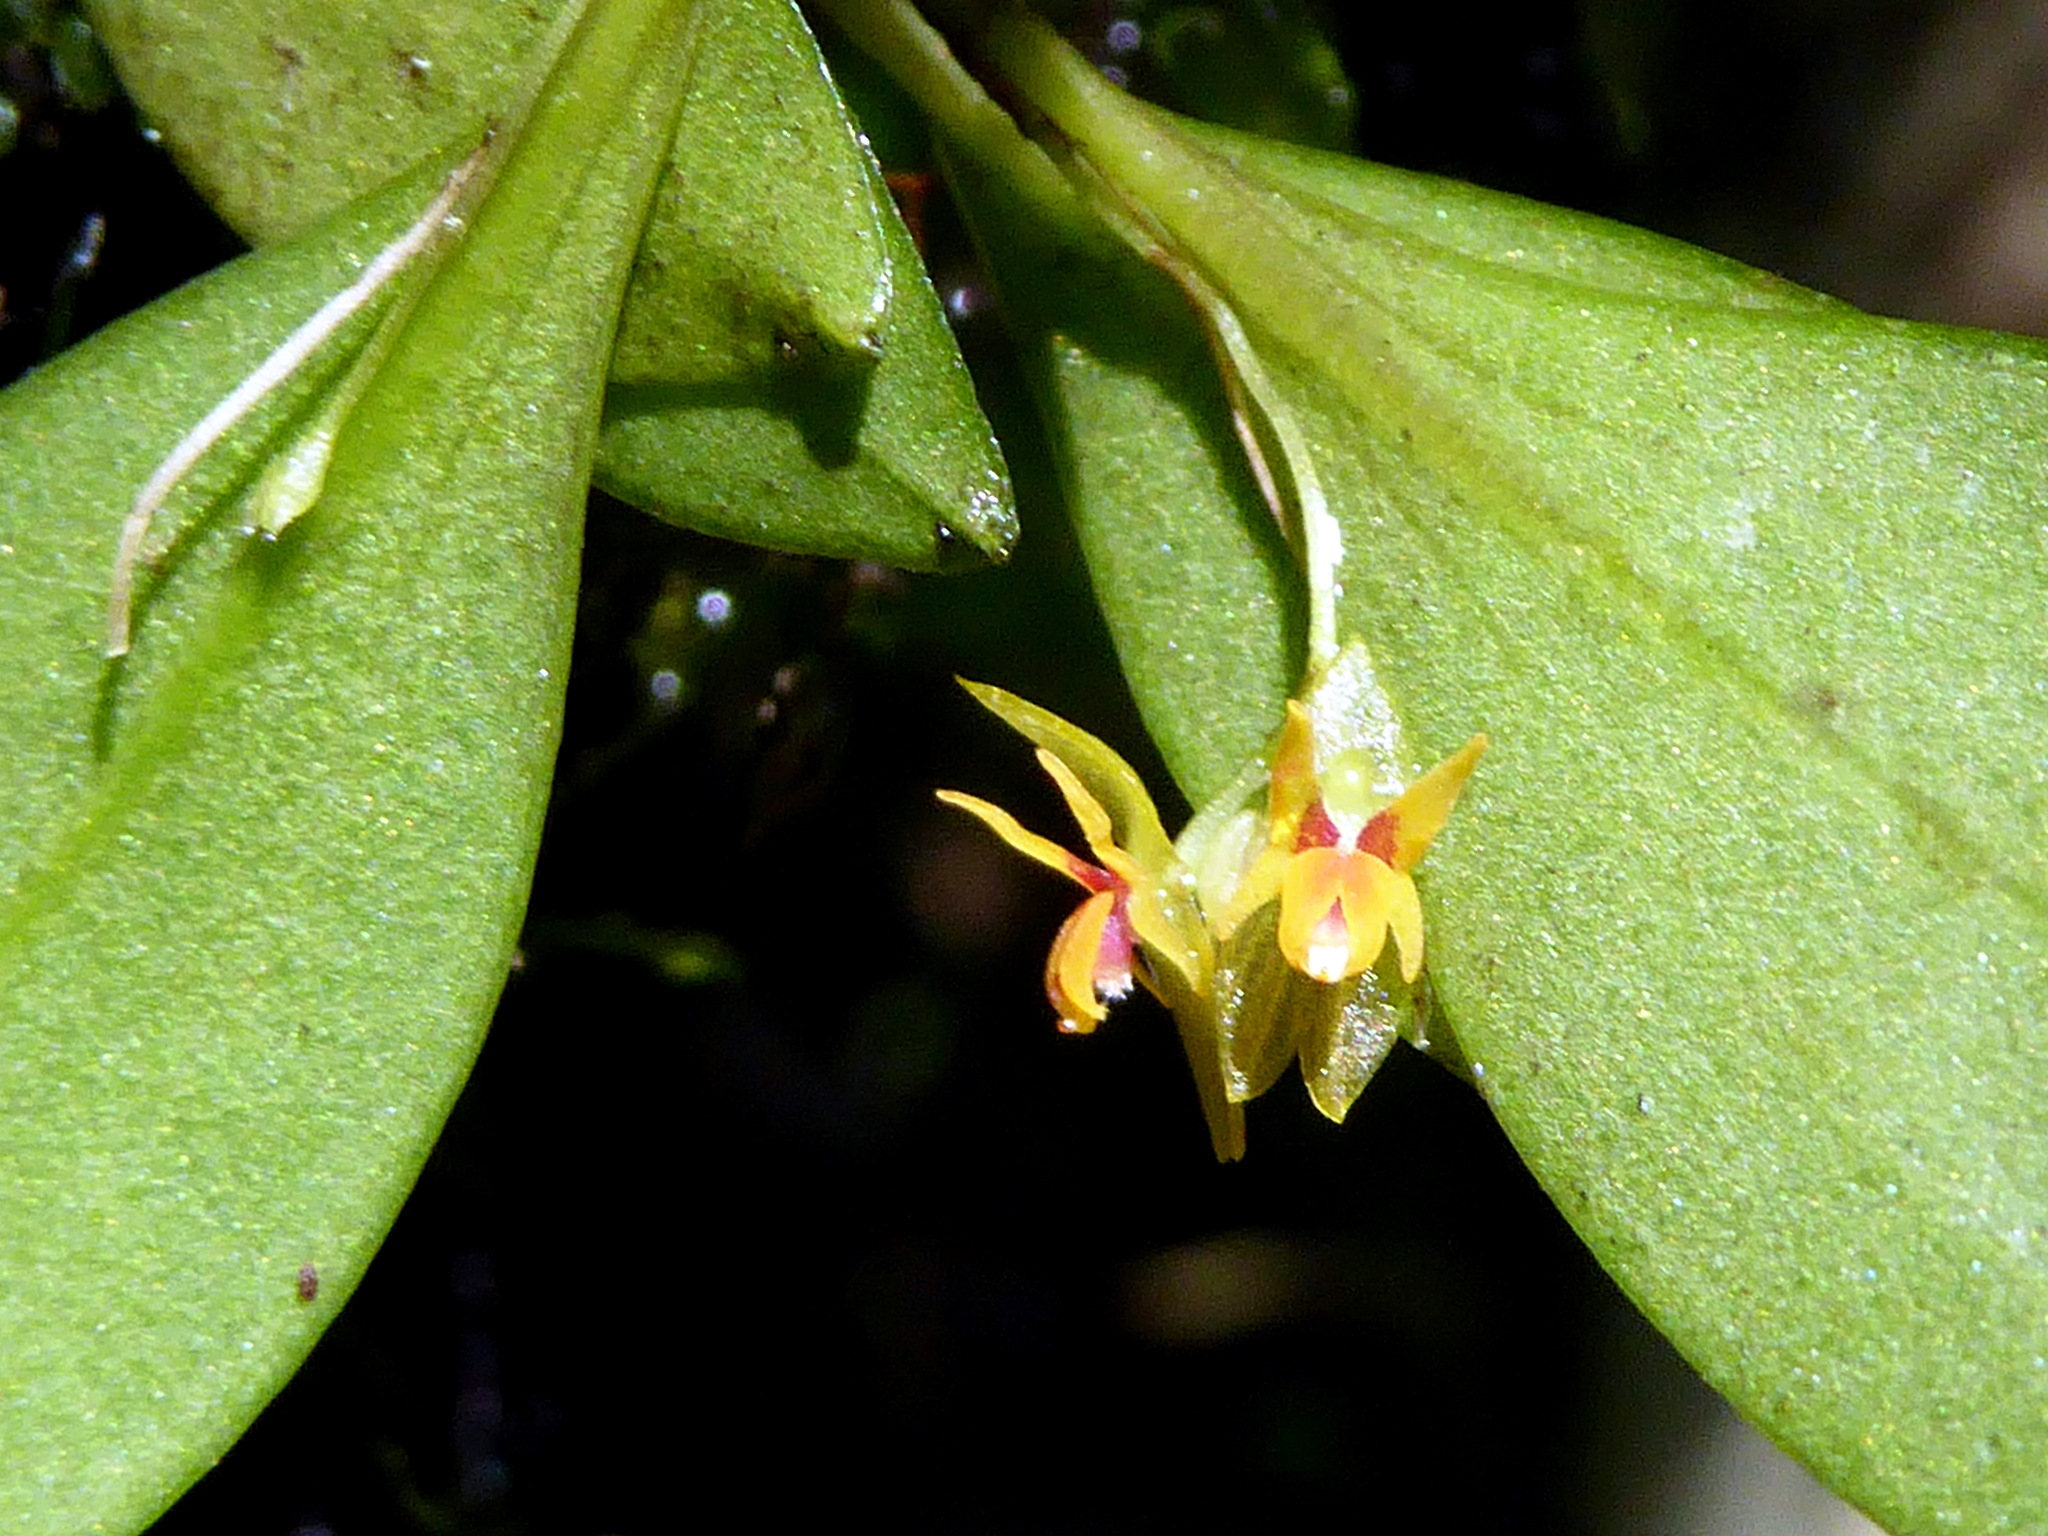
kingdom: Plantae
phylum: Tracheophyta
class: Liliopsida
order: Asparagales
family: Orchidaceae
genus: Lepanthes
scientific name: Lepanthes quetzalensis
